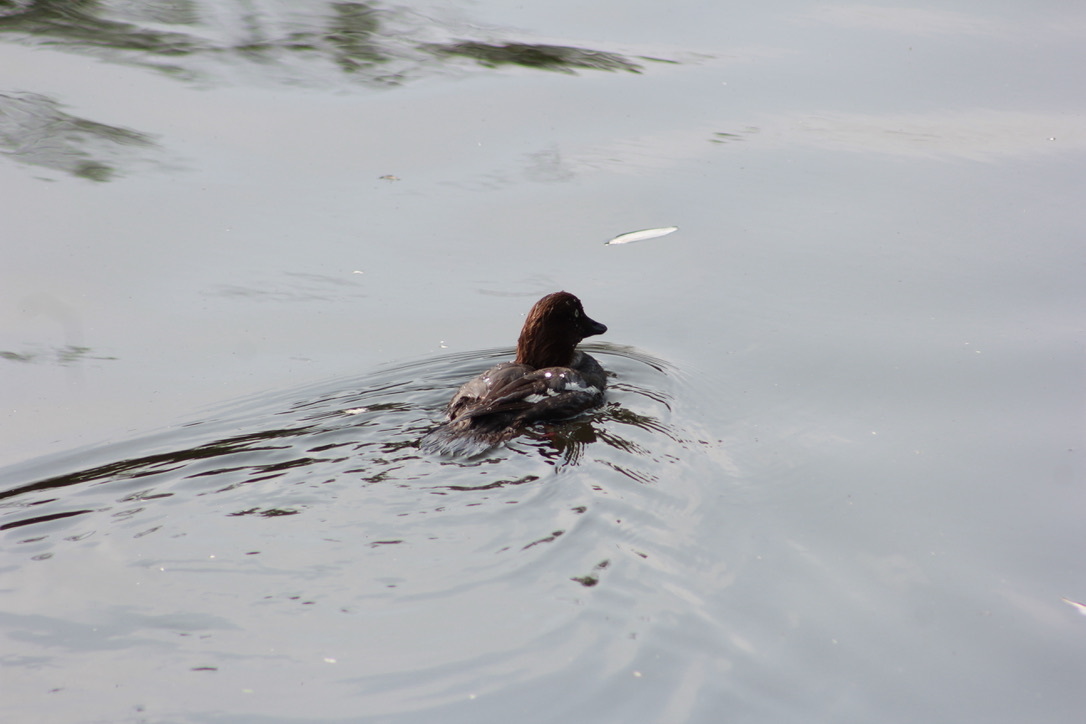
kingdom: Animalia
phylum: Chordata
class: Aves
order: Anseriformes
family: Anatidae
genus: Bucephala
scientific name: Bucephala clangula
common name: Common goldeneye
